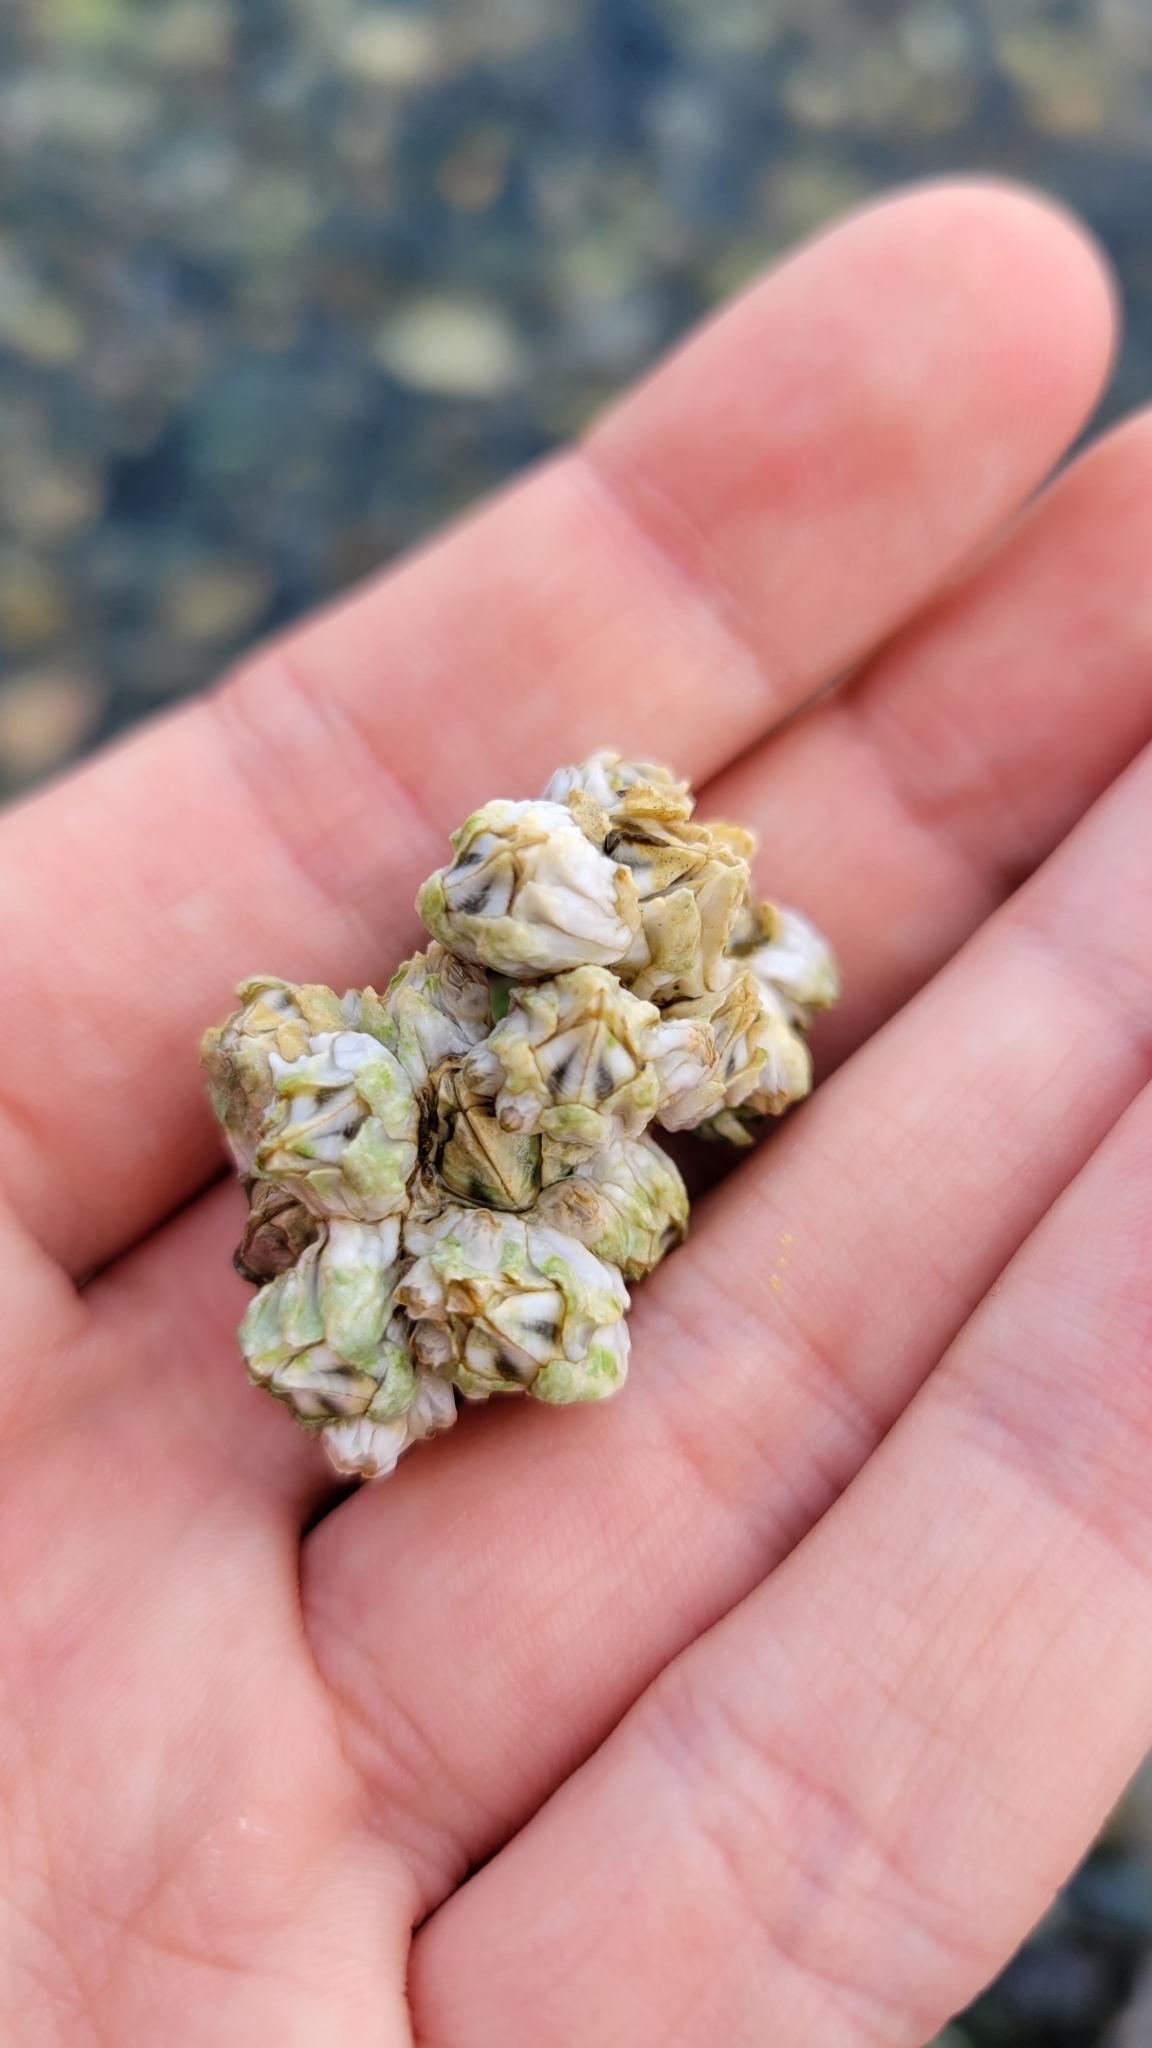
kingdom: Animalia
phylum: Arthropoda
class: Maxillopoda
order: Sessilia
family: Balanidae
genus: Balanus
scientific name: Balanus glandula
